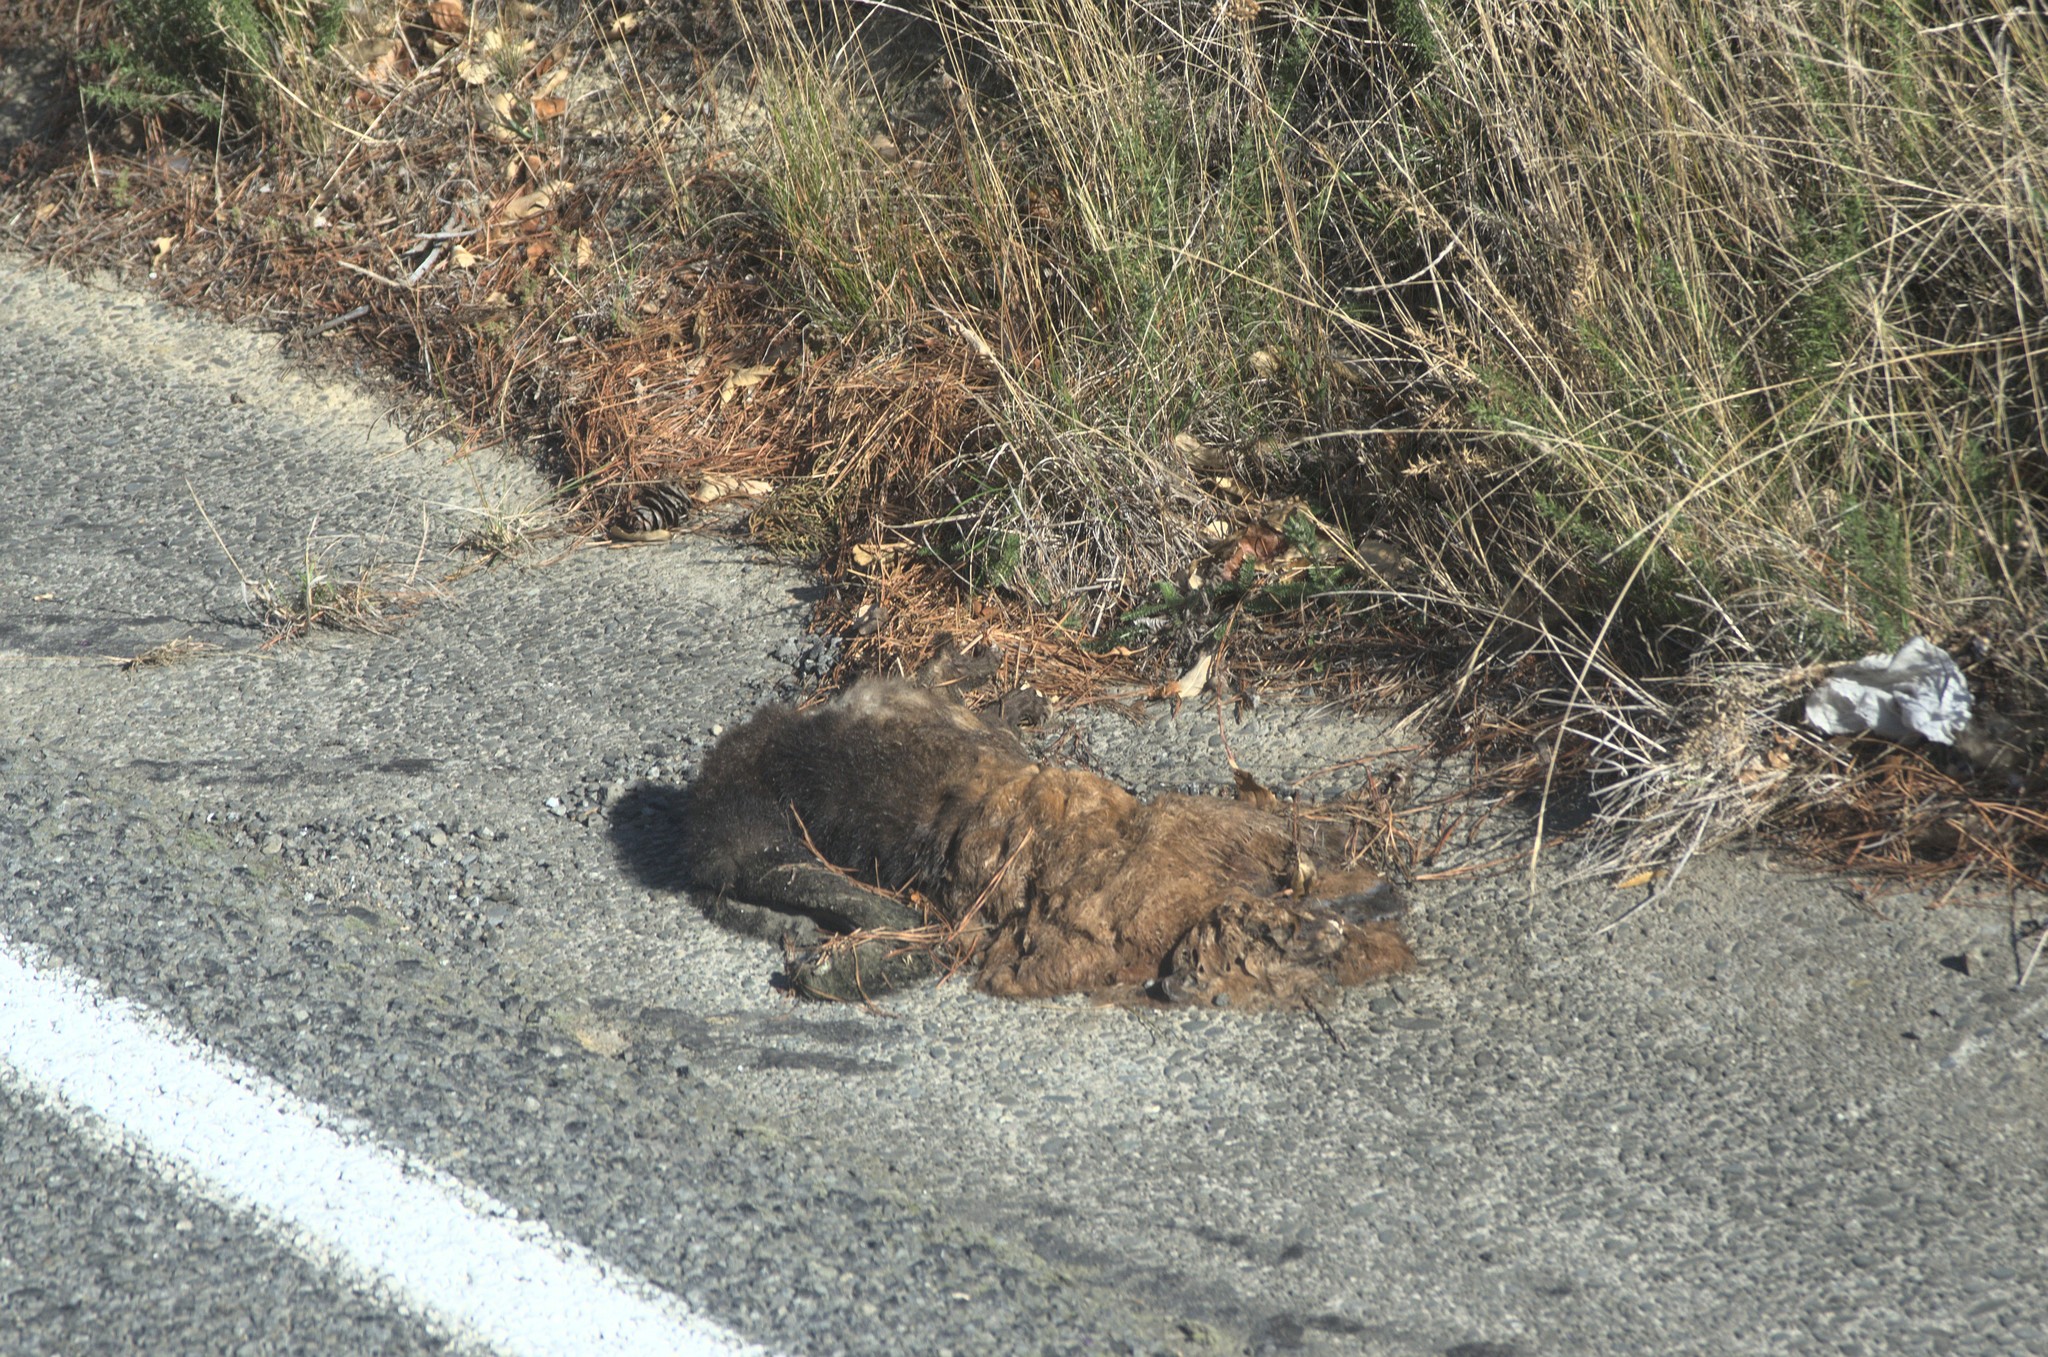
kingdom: Animalia
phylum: Chordata
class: Mammalia
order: Diprotodontia
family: Phalangeridae
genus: Trichosurus
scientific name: Trichosurus vulpecula
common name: Common brushtail
